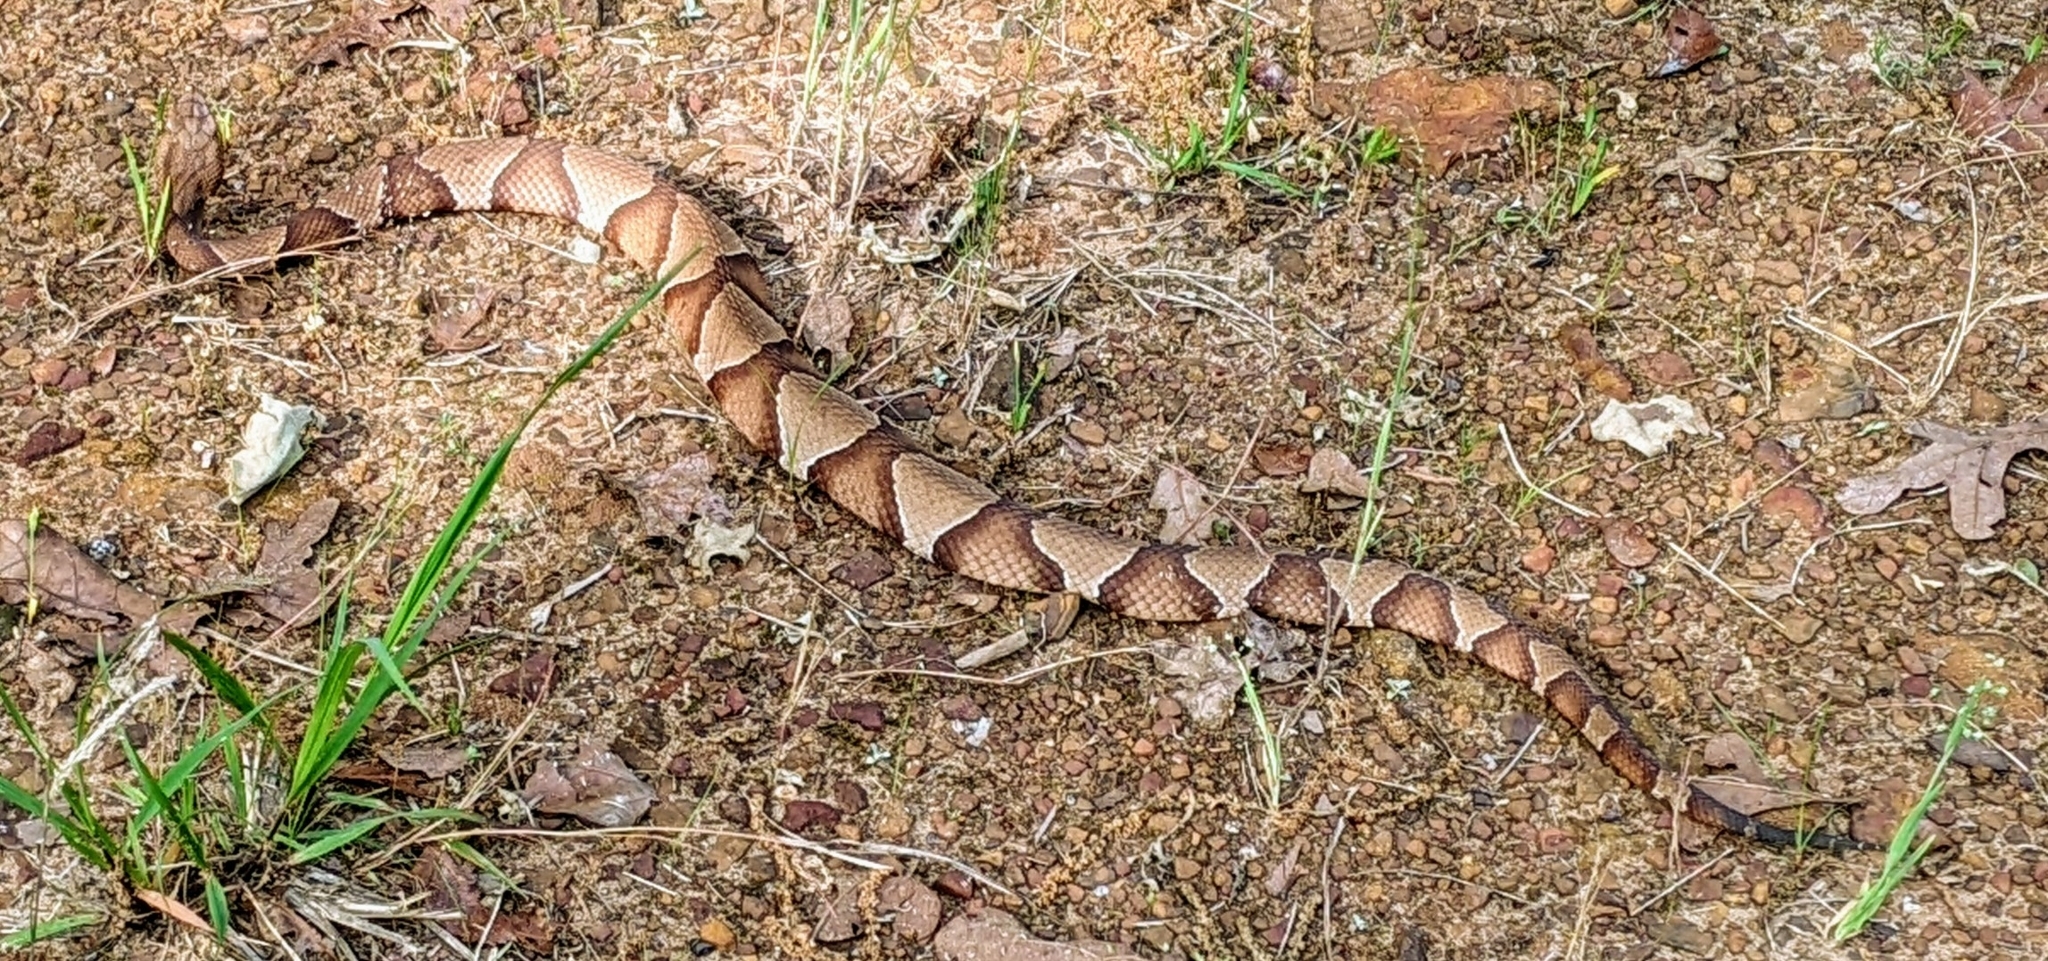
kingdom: Animalia
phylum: Chordata
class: Squamata
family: Viperidae
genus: Agkistrodon
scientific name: Agkistrodon contortrix
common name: Northern copperhead
